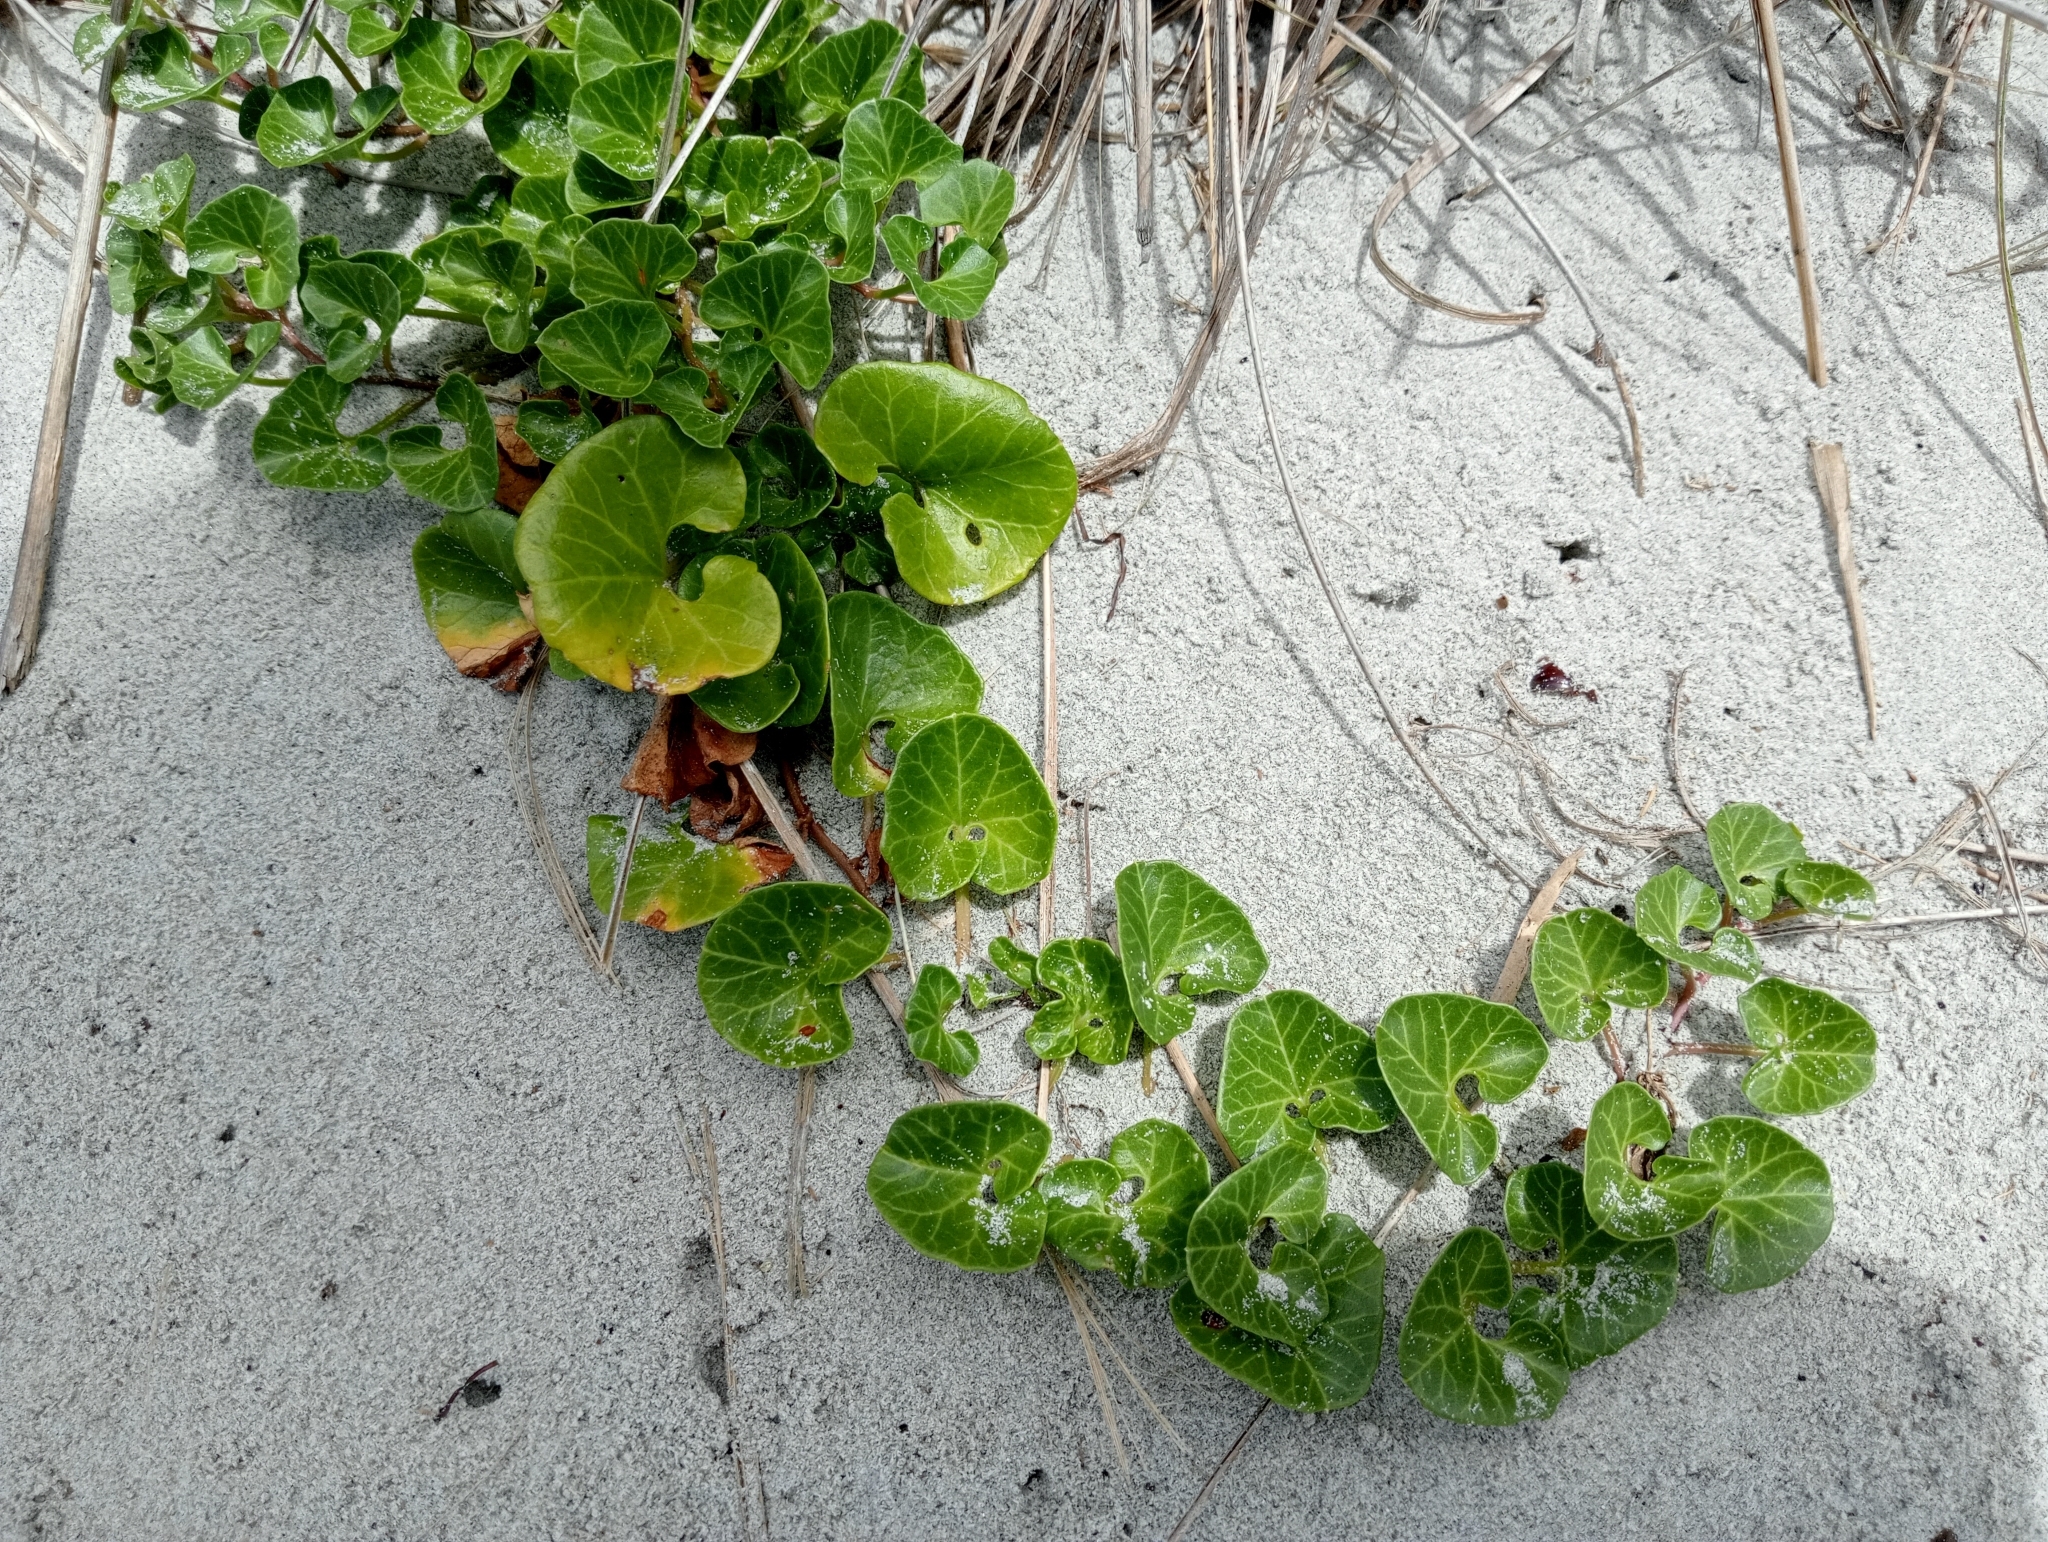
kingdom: Plantae
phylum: Tracheophyta
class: Magnoliopsida
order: Solanales
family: Convolvulaceae
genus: Calystegia
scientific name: Calystegia soldanella
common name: Sea bindweed
